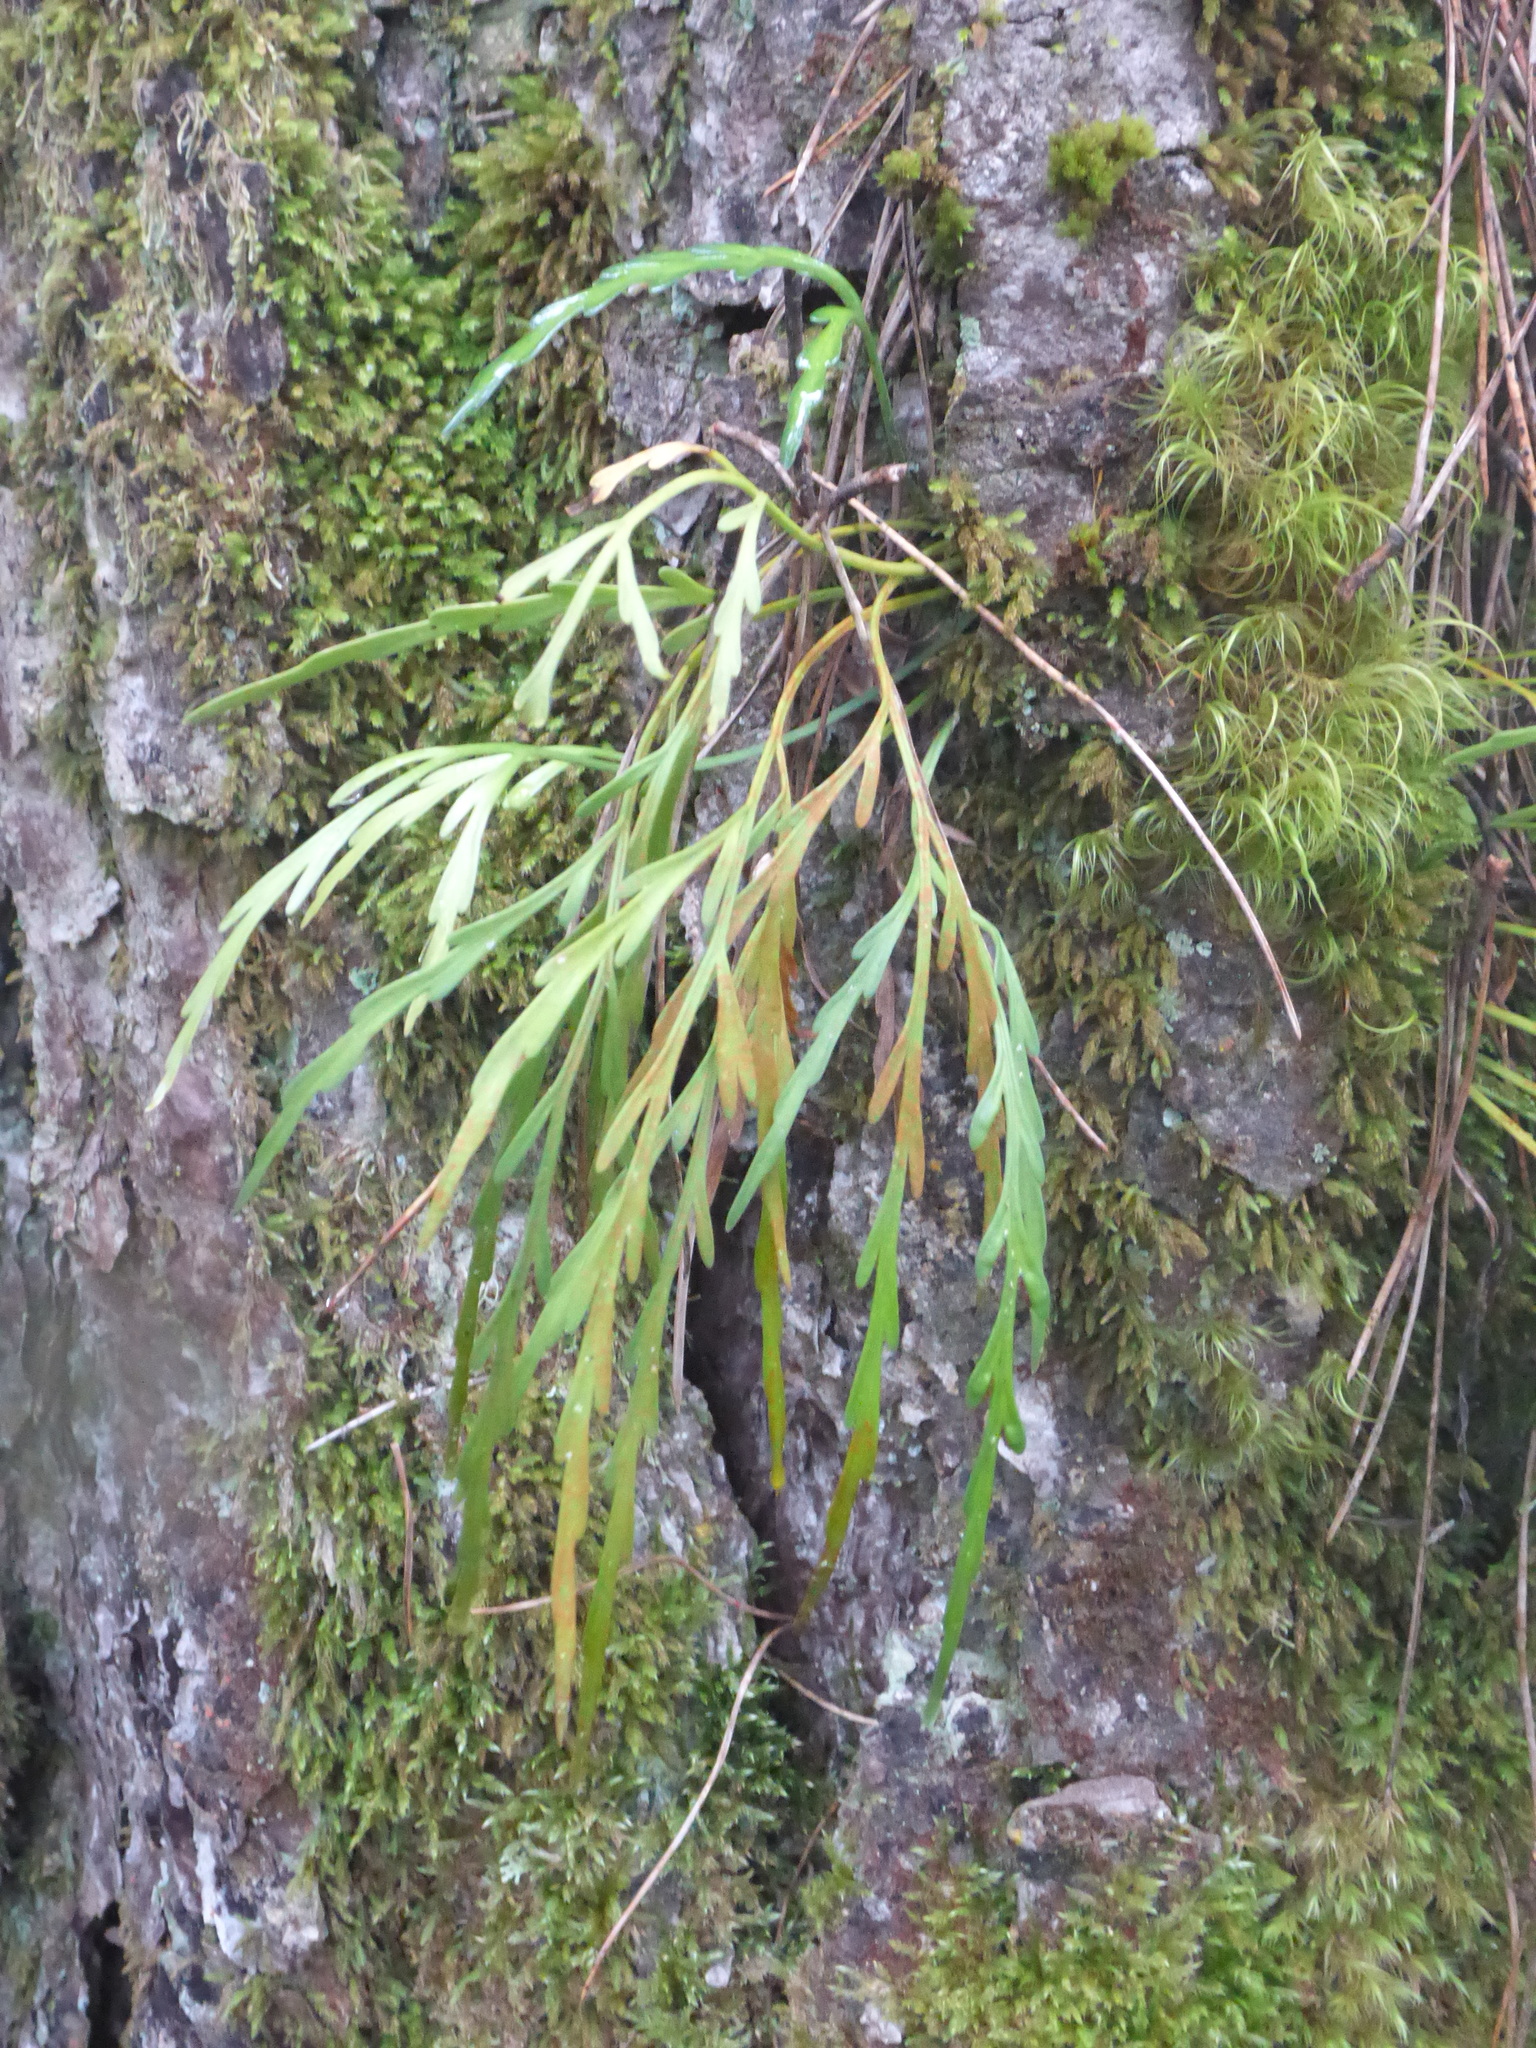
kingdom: Plantae
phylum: Tracheophyta
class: Polypodiopsida
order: Polypodiales
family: Aspleniaceae
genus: Asplenium
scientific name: Asplenium flaccidum
